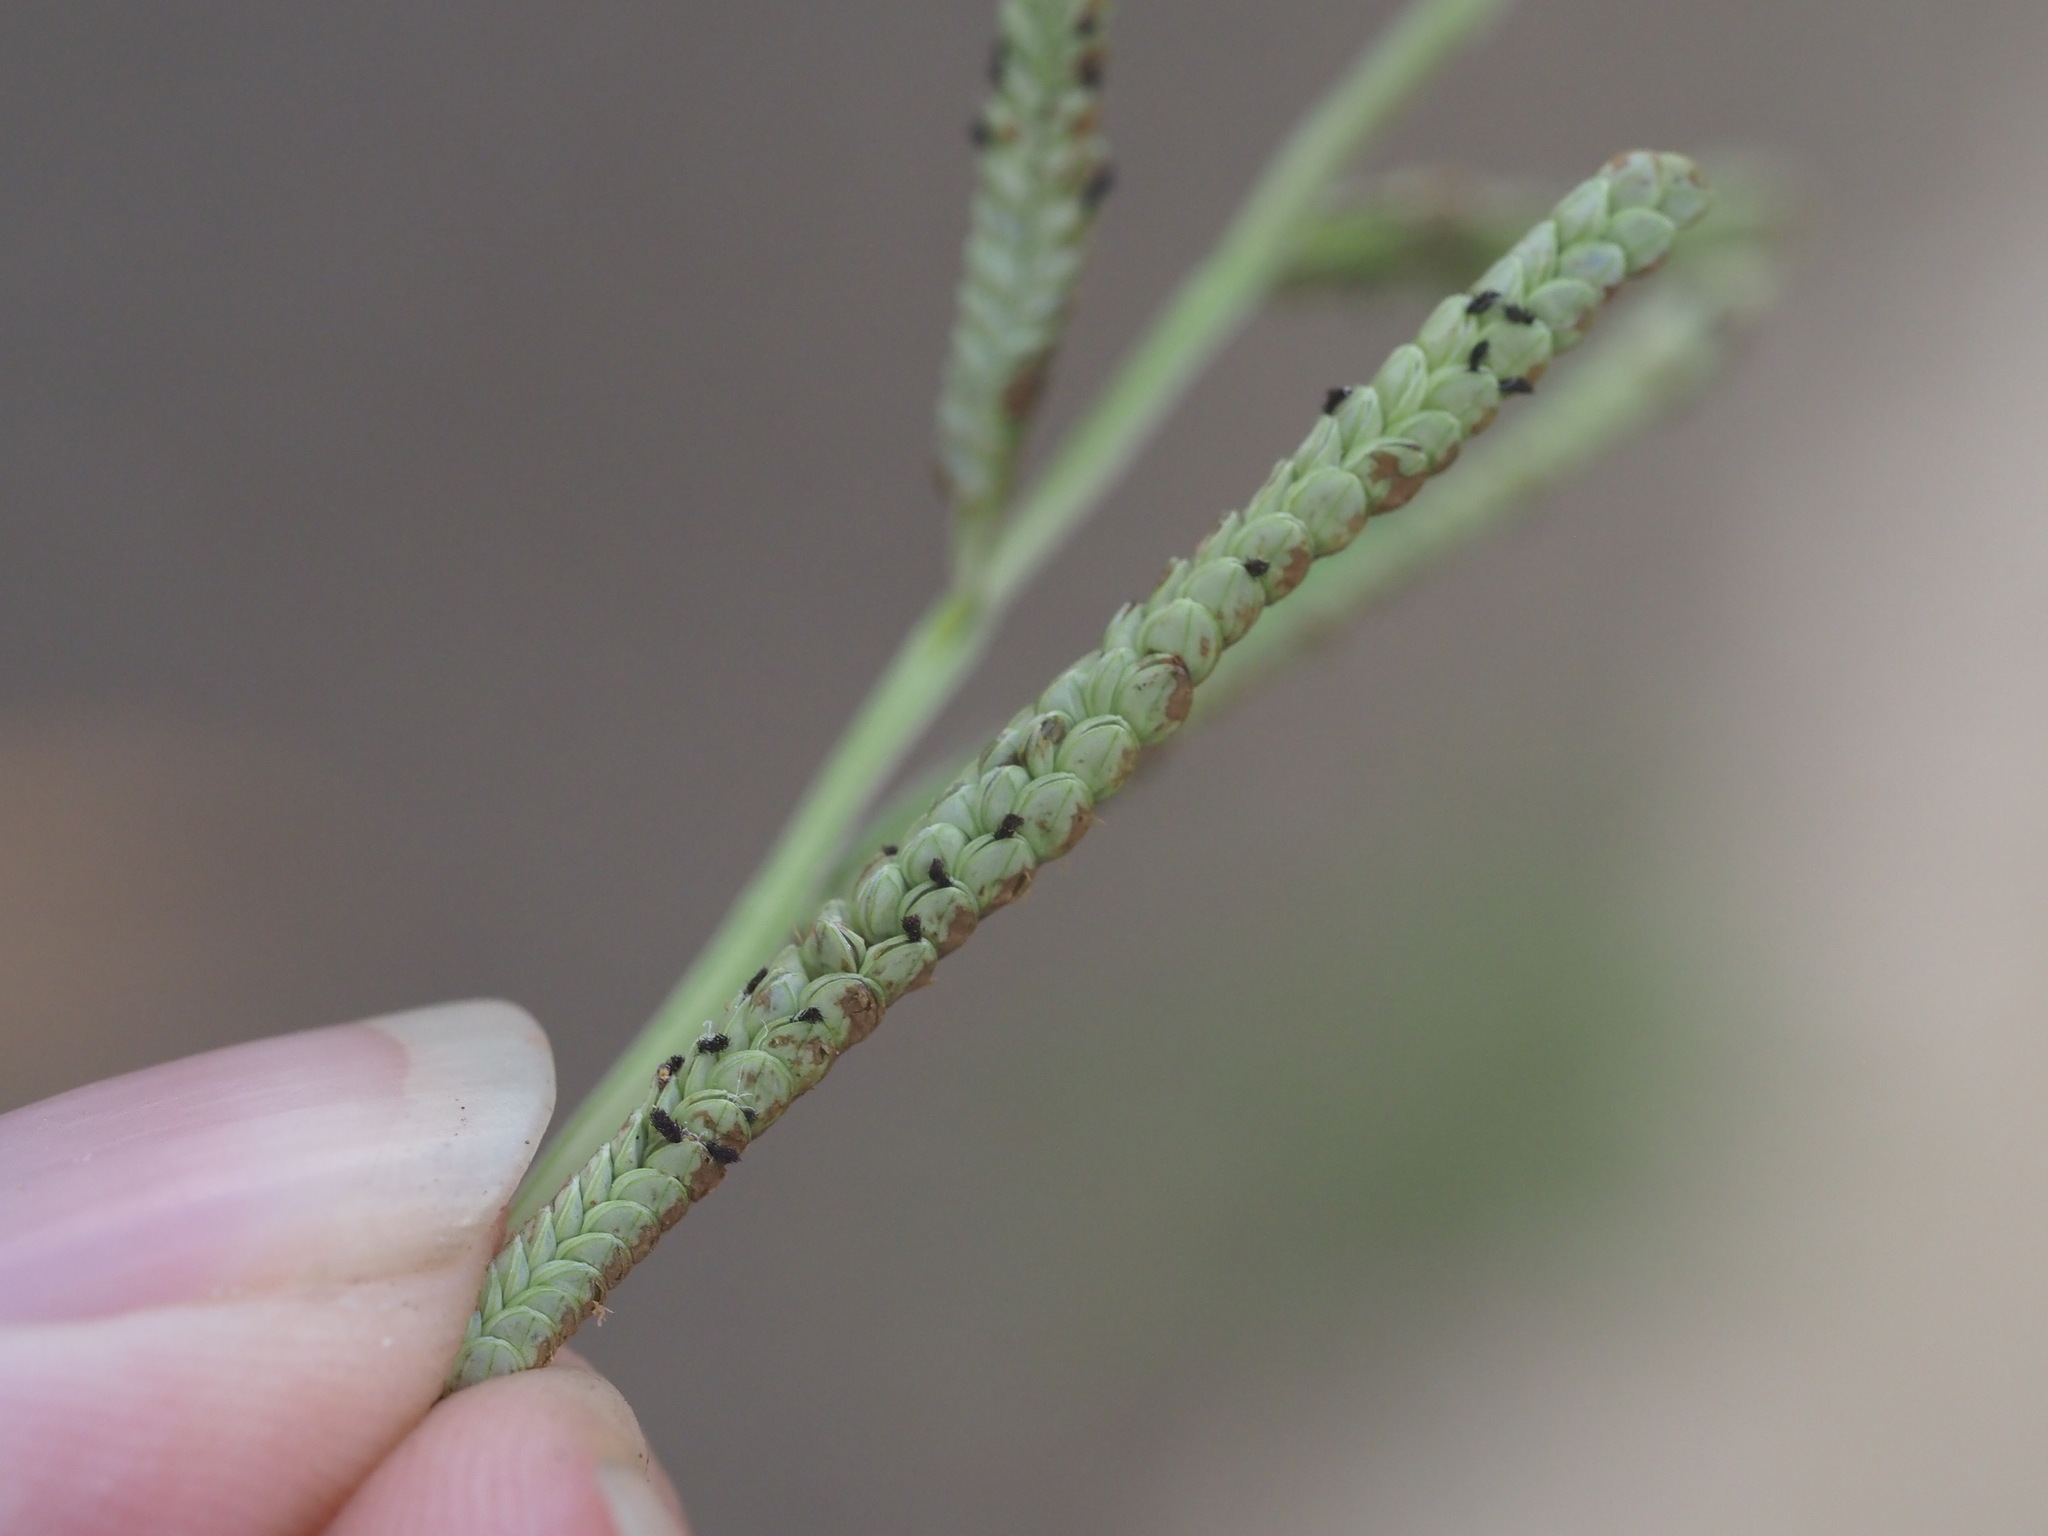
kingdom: Plantae
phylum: Tracheophyta
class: Liliopsida
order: Poales
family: Poaceae
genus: Paspalum
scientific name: Paspalum scrobiculatum
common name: Kodo millet
